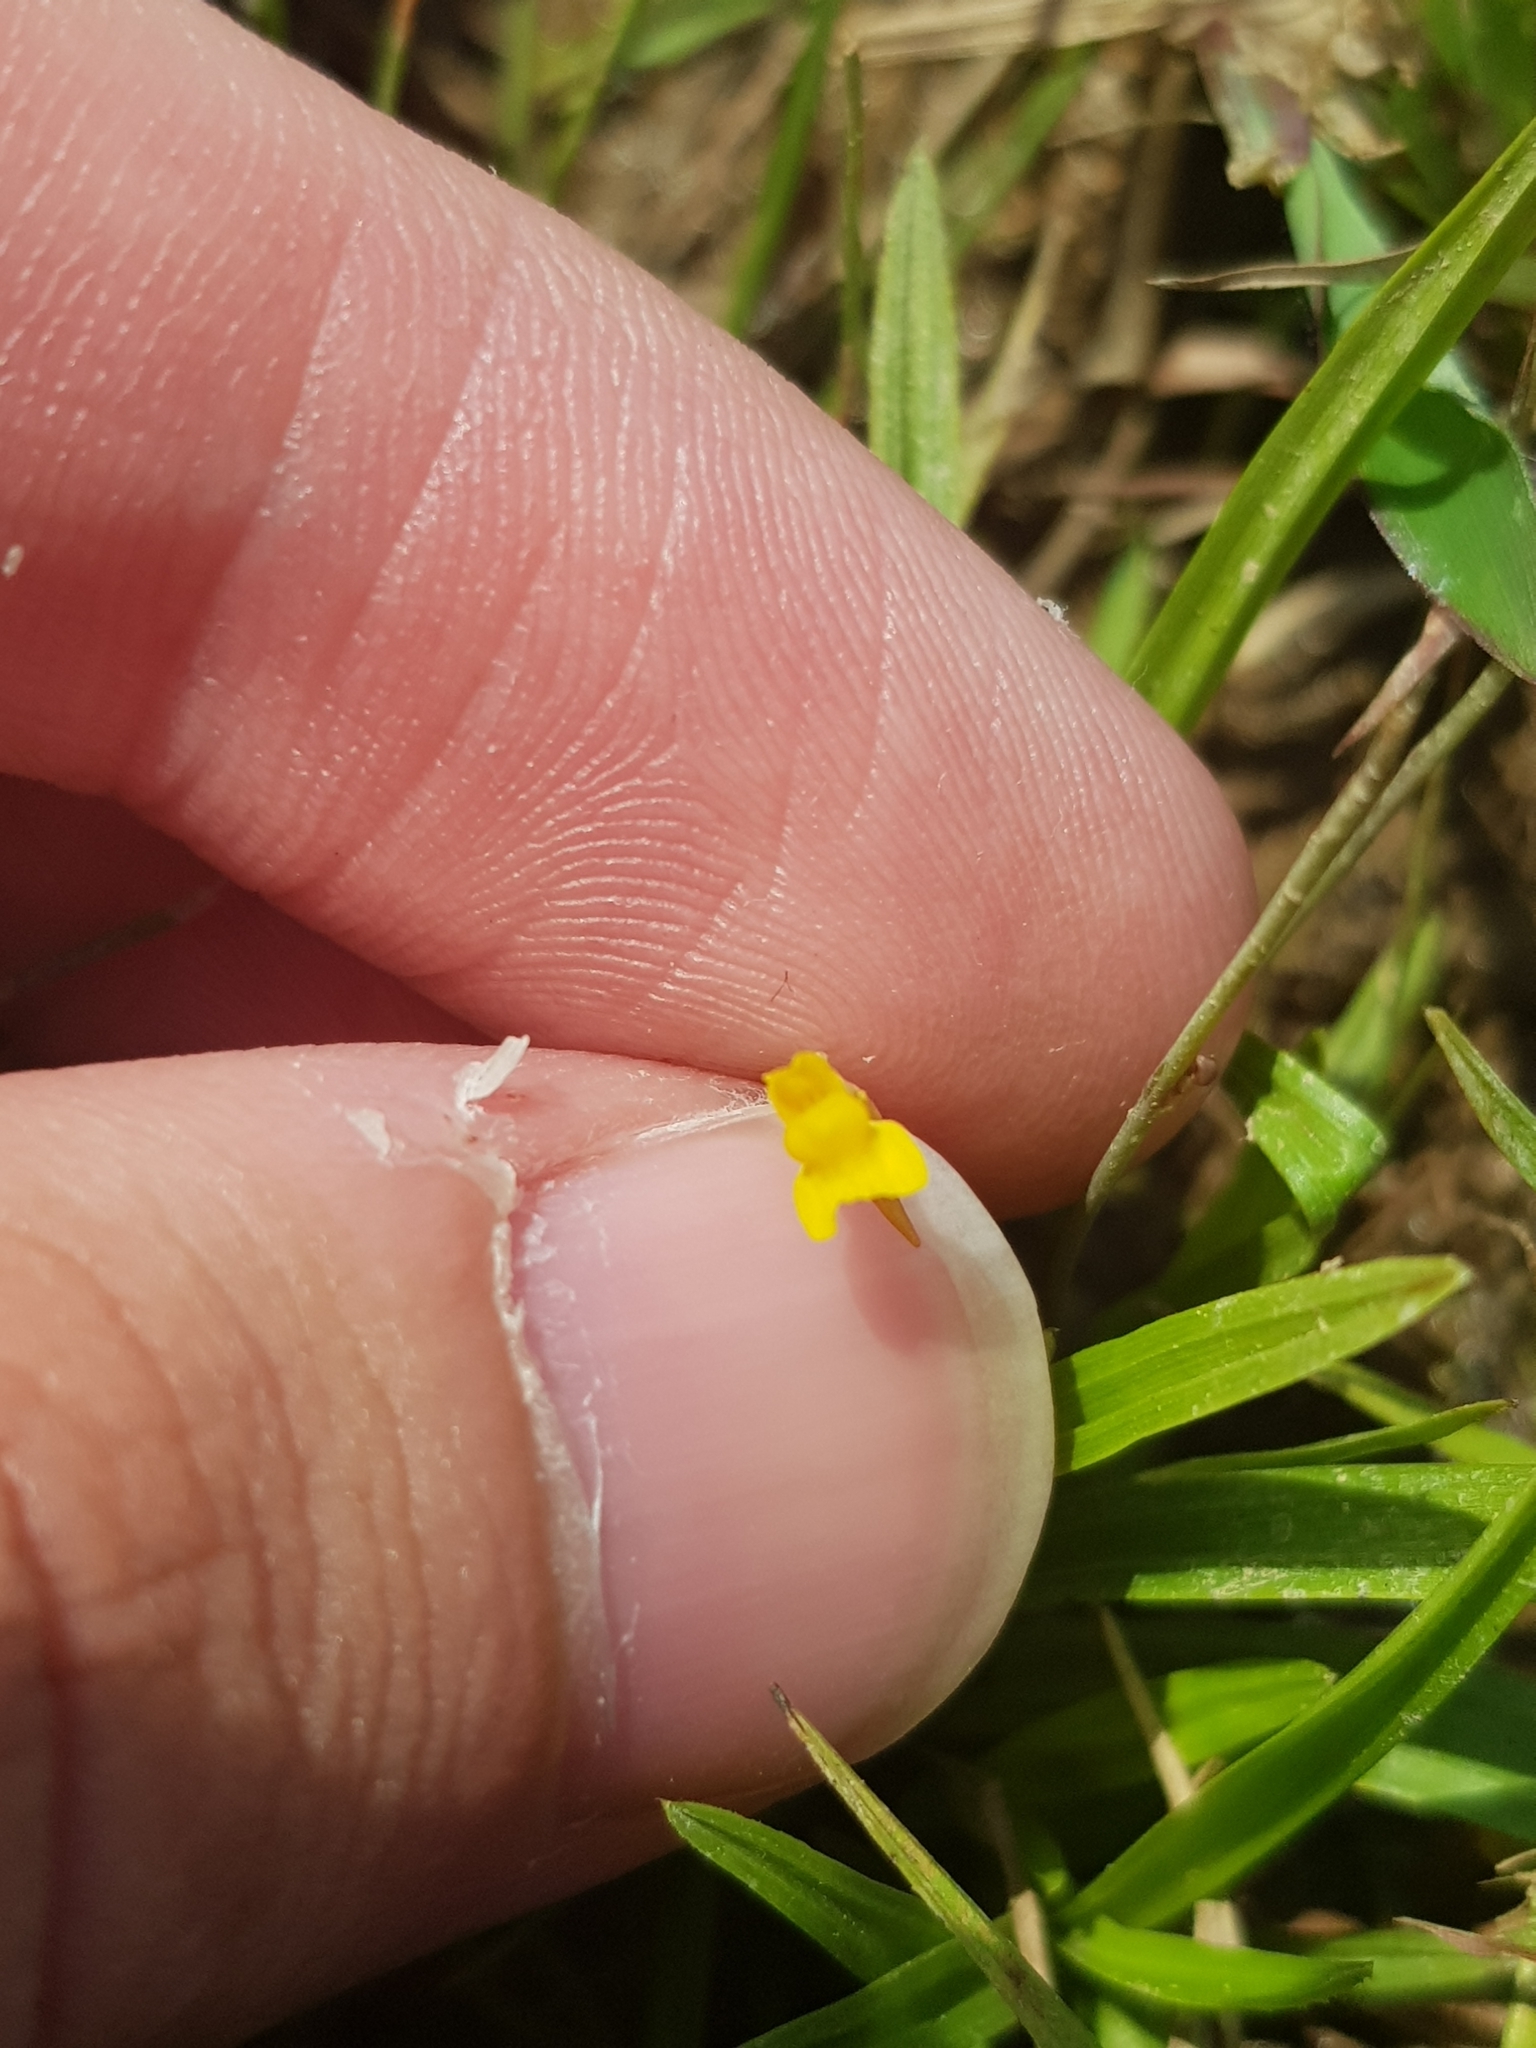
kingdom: Plantae
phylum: Tracheophyta
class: Magnoliopsida
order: Lamiales
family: Lentibulariaceae
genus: Utricularia
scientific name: Utricularia bifida
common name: Bifid bladderwort
